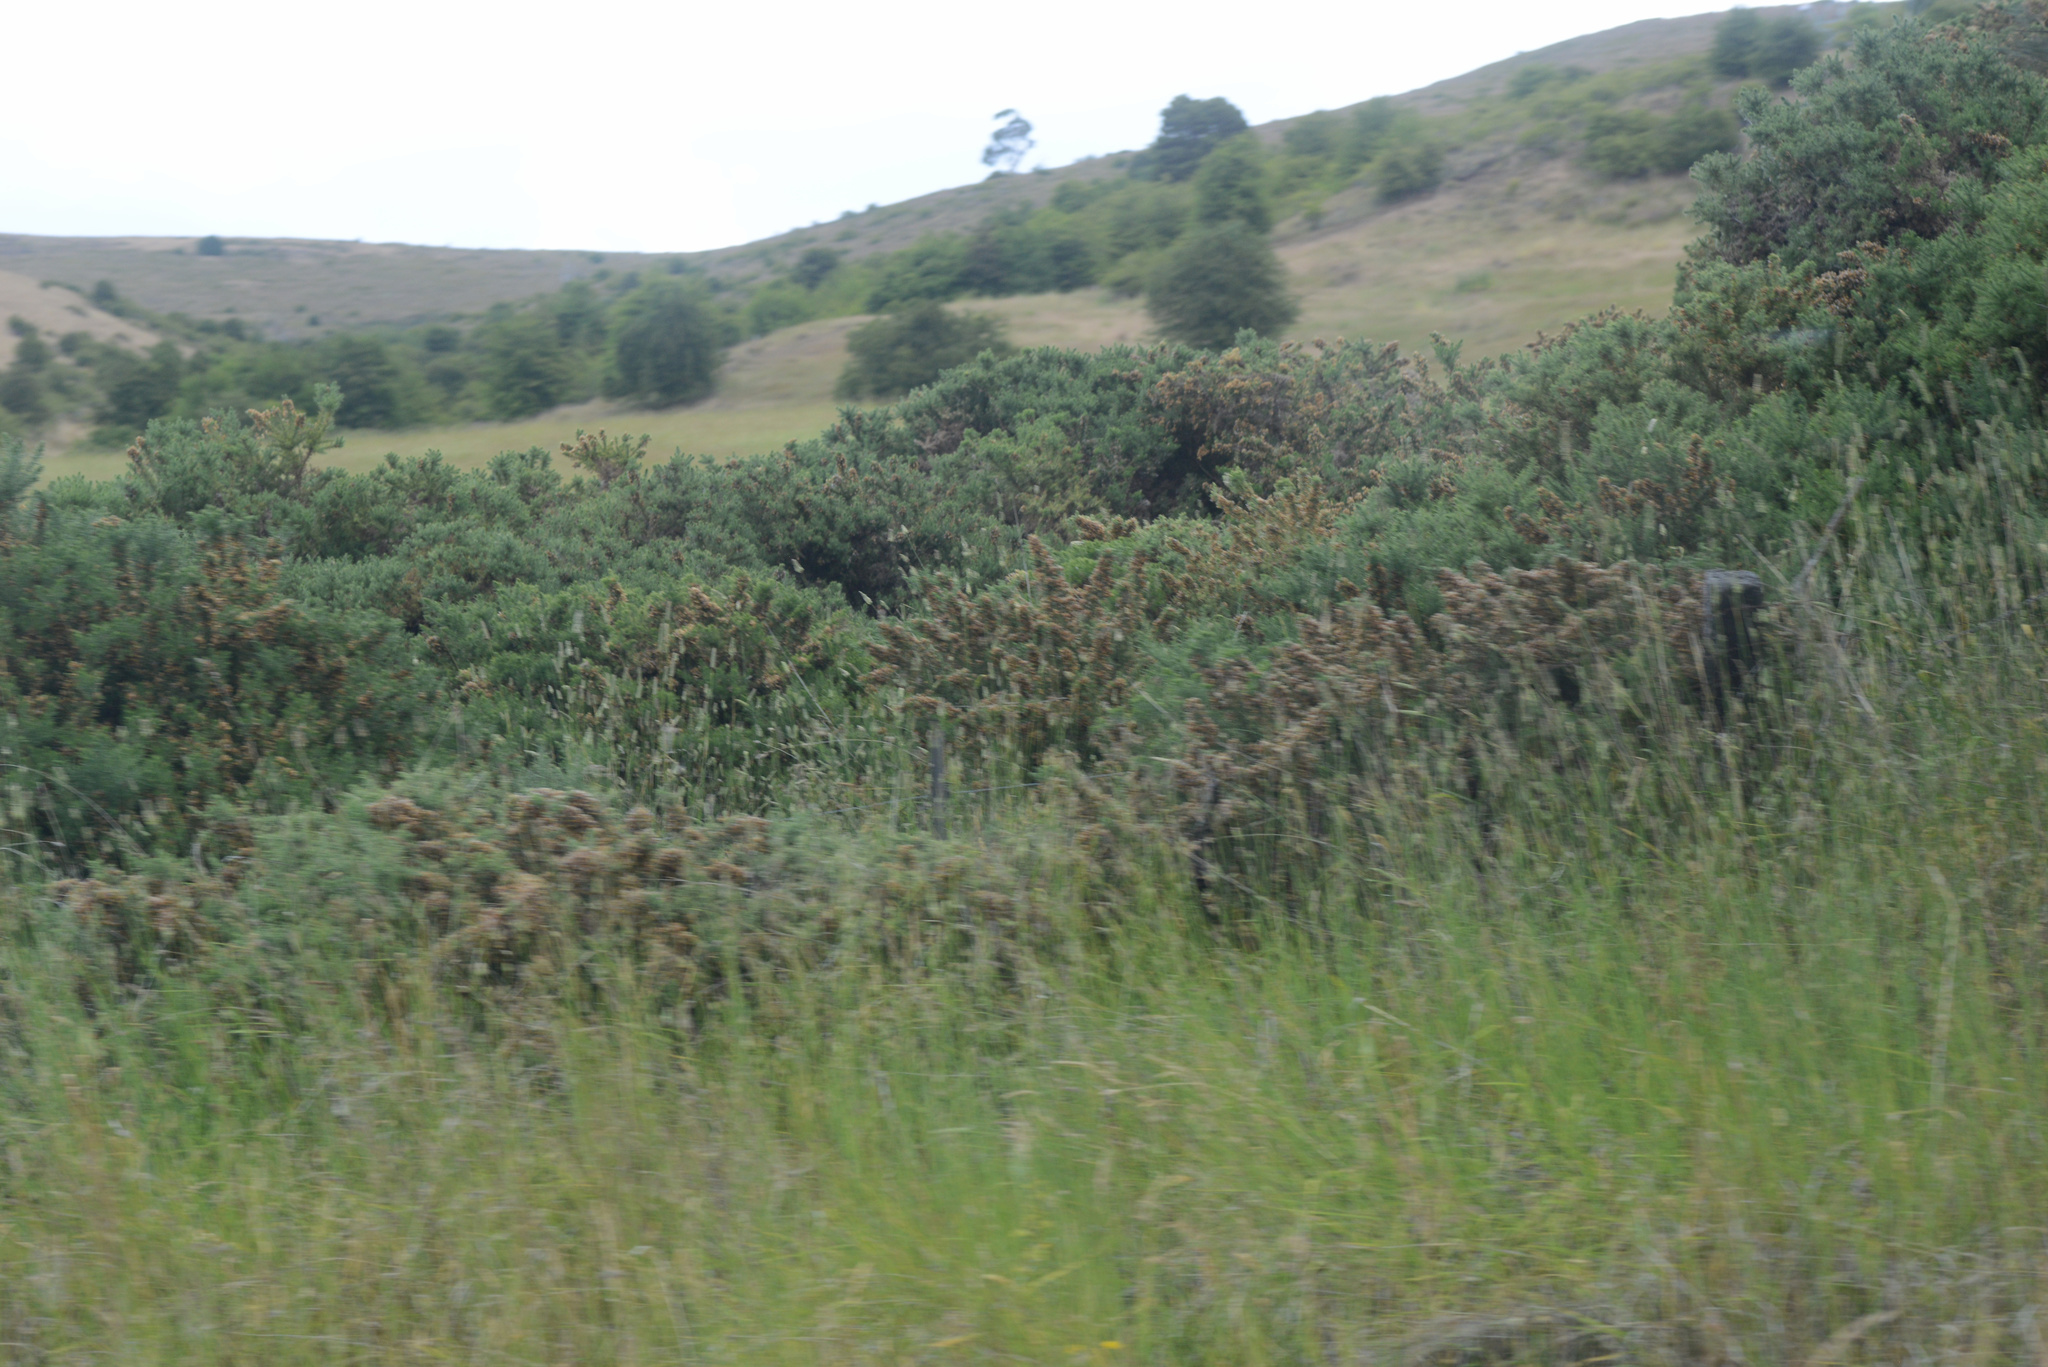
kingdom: Plantae
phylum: Tracheophyta
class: Magnoliopsida
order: Fabales
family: Fabaceae
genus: Ulex
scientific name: Ulex europaeus
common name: Common gorse
